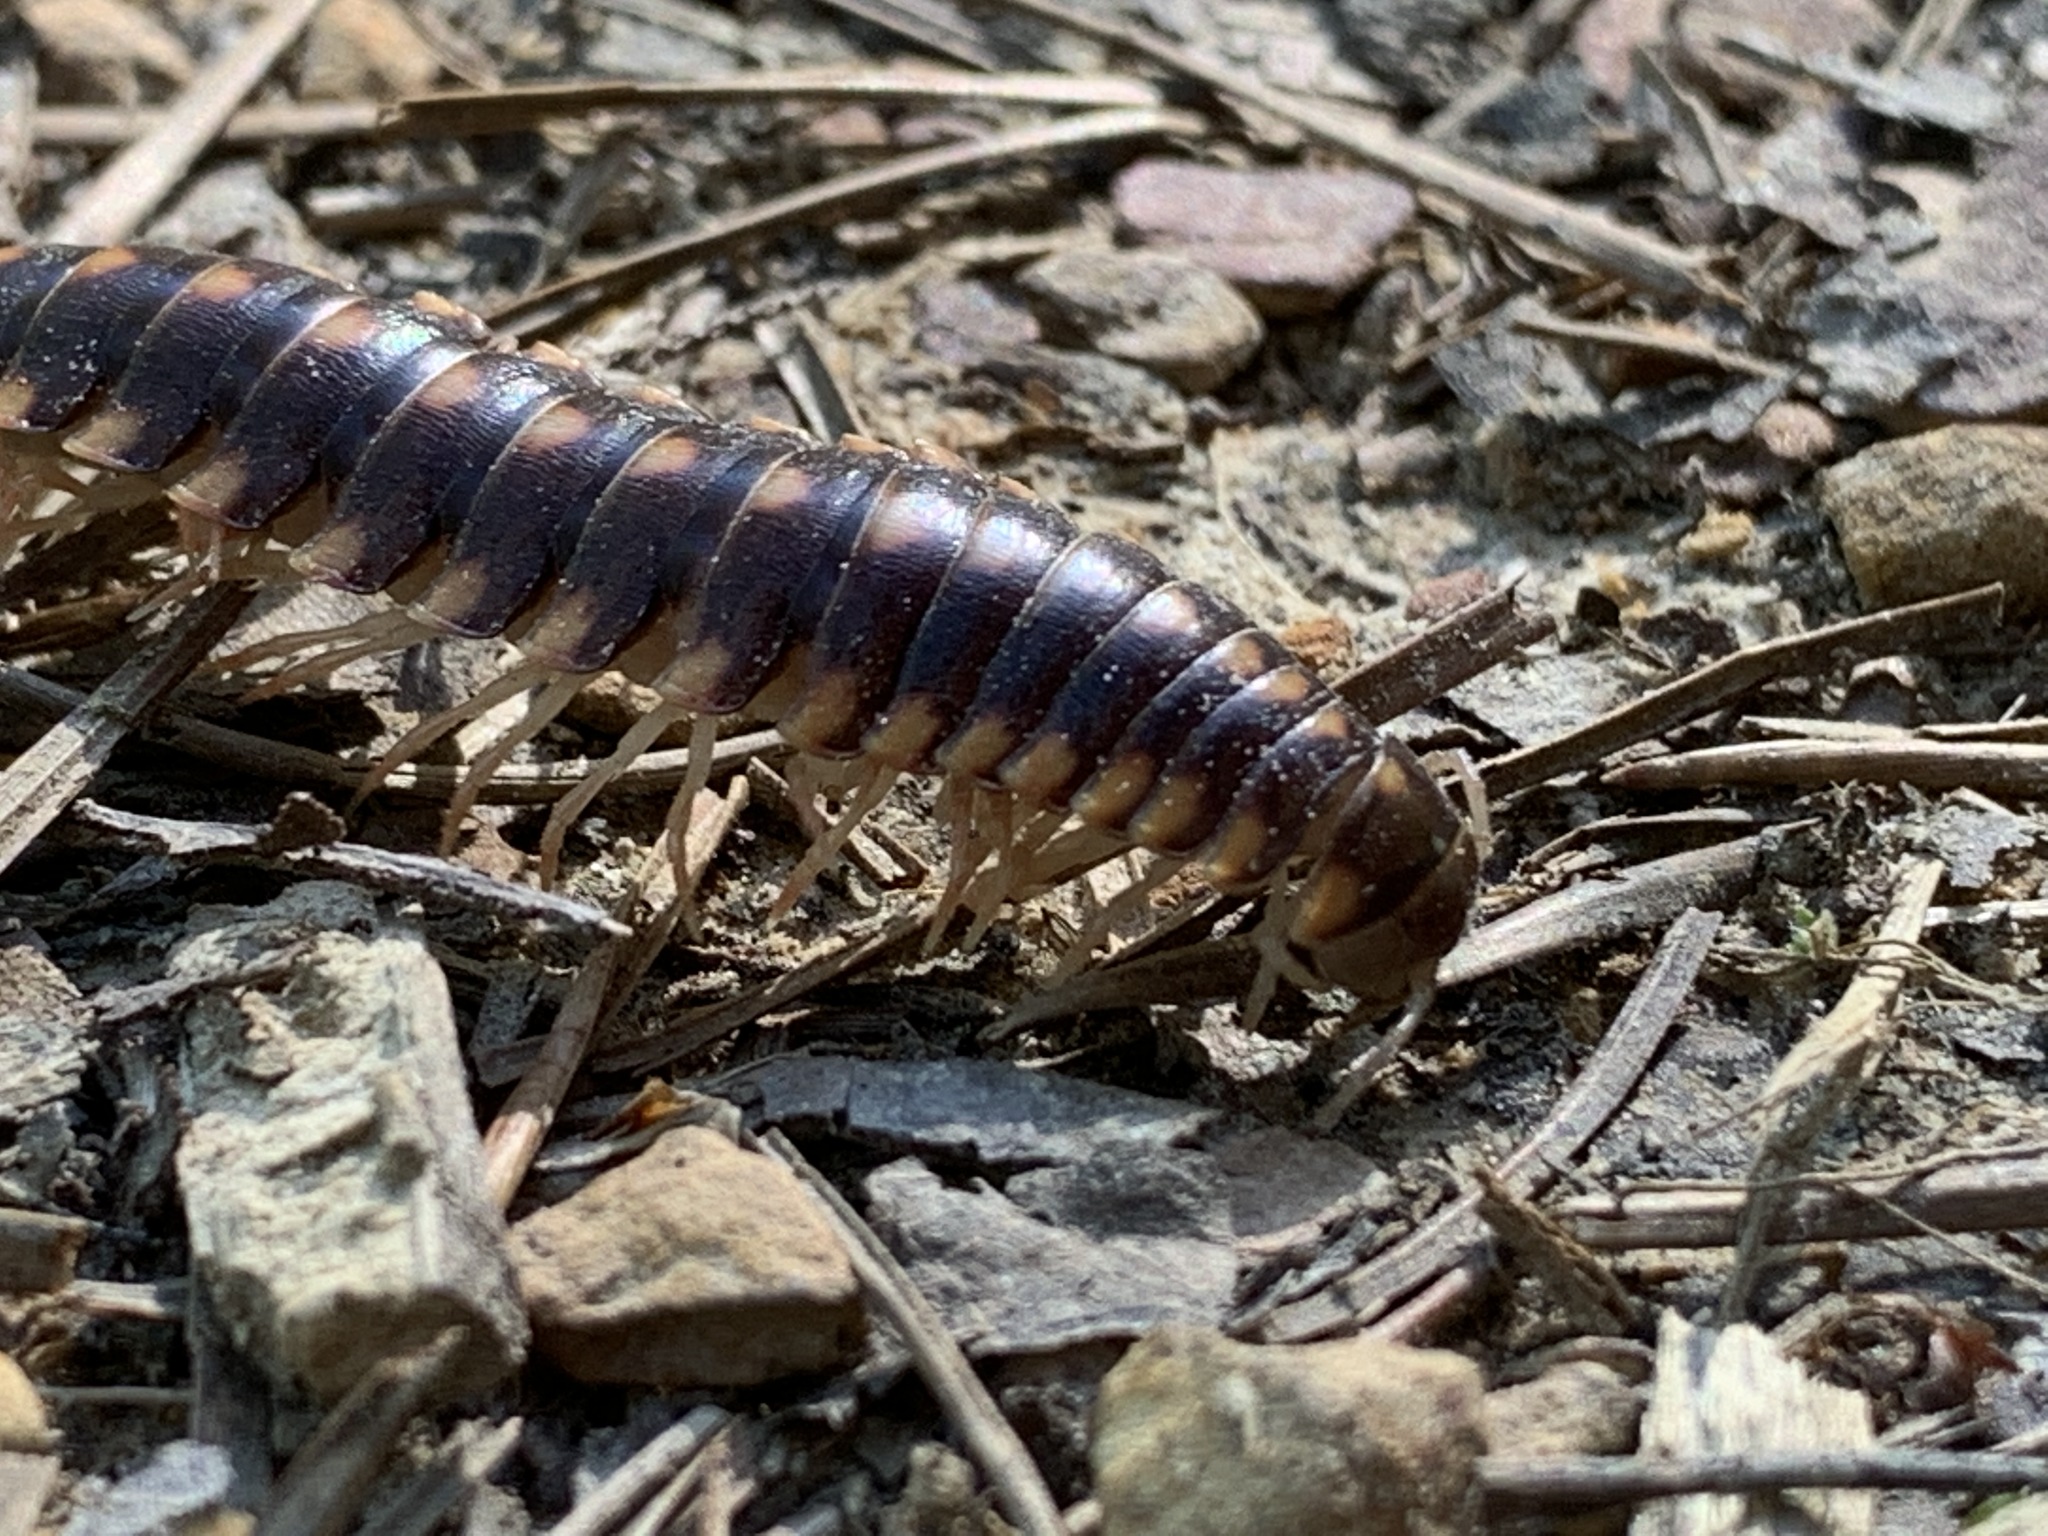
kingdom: Animalia
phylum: Arthropoda
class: Diplopoda
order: Polydesmida
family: Xystodesmidae
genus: Cherokia
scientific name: Cherokia georgiana
